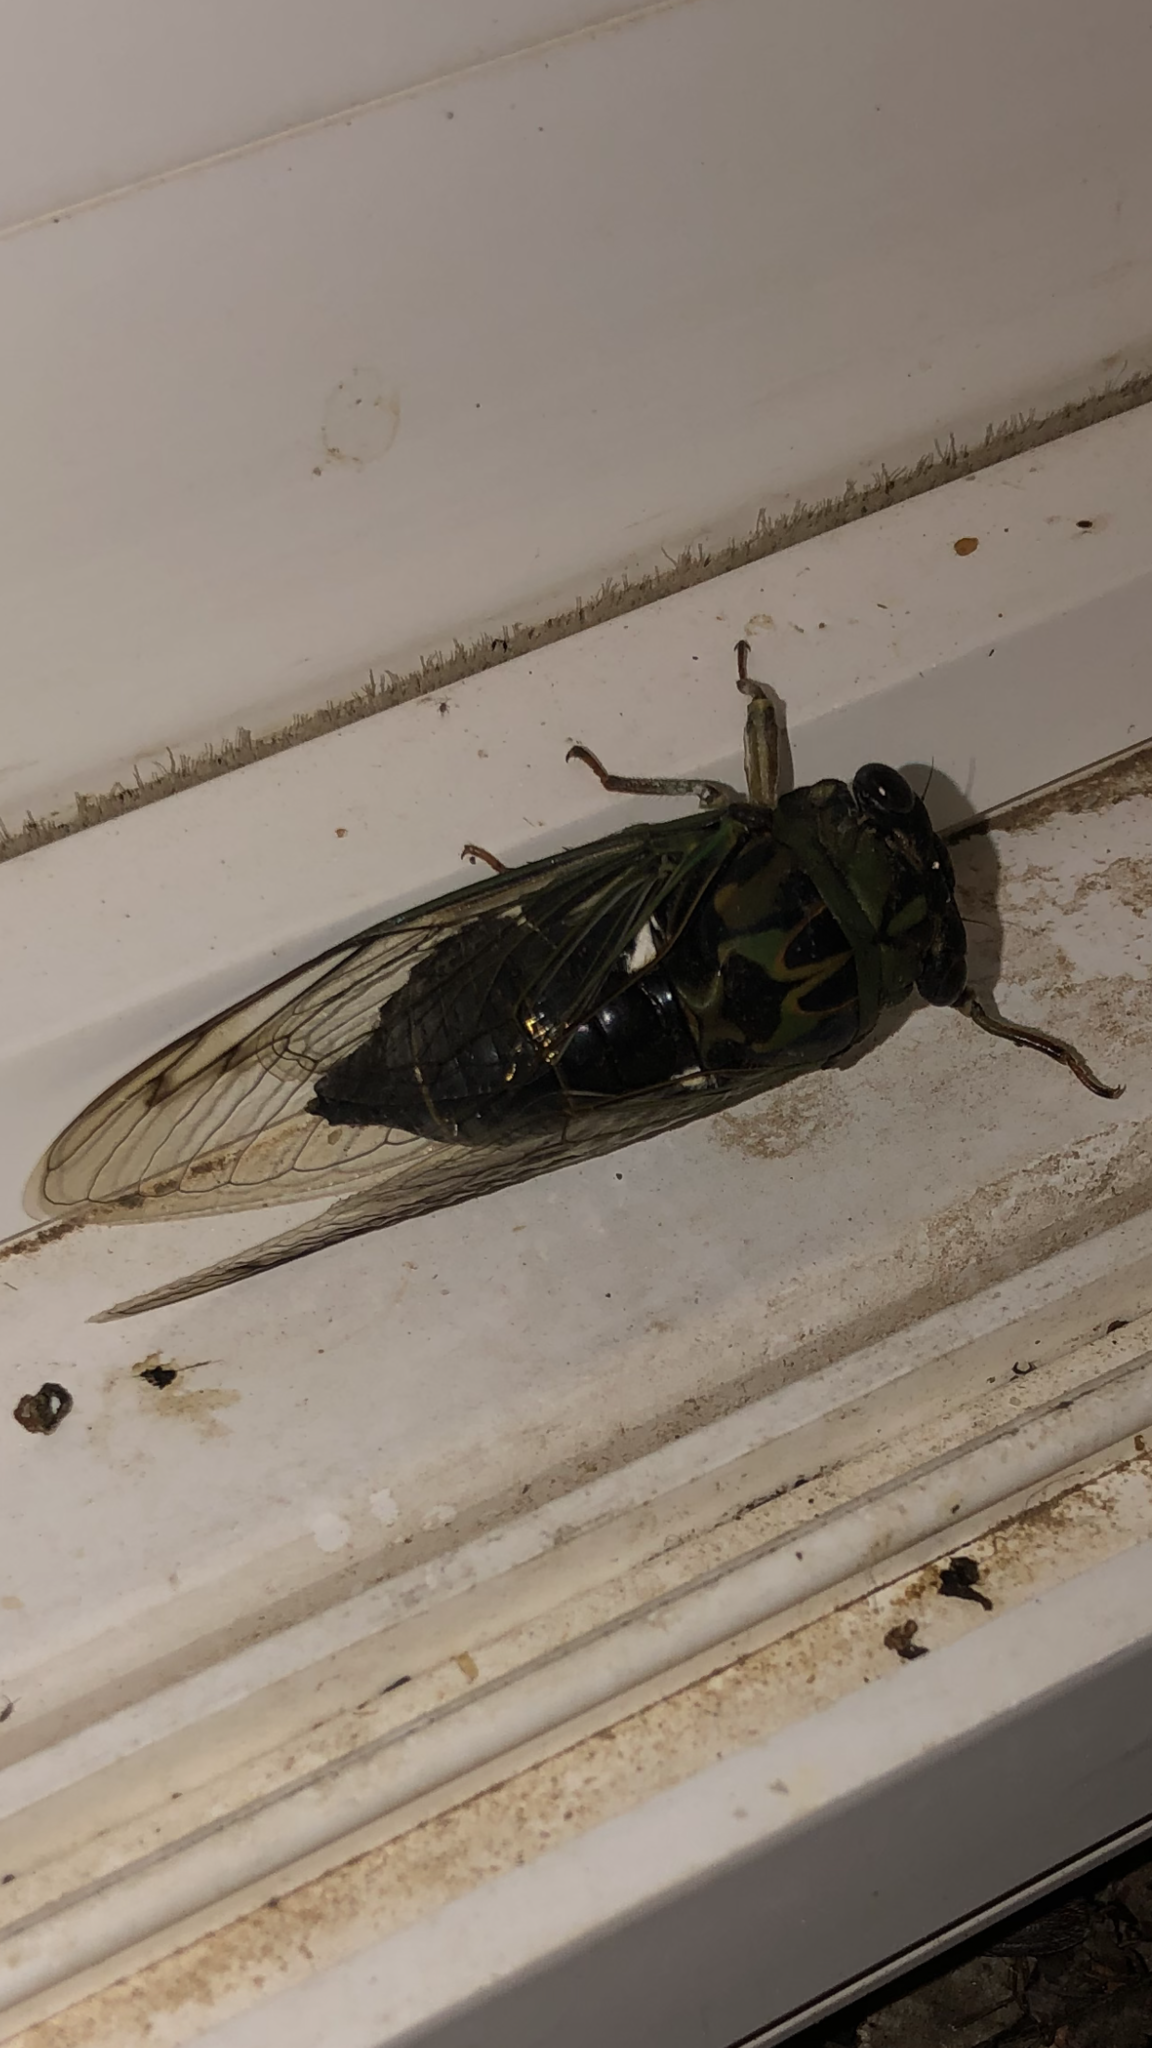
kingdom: Animalia
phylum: Arthropoda
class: Insecta
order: Hemiptera
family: Cicadidae
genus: Neotibicen
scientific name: Neotibicen pruinosus
